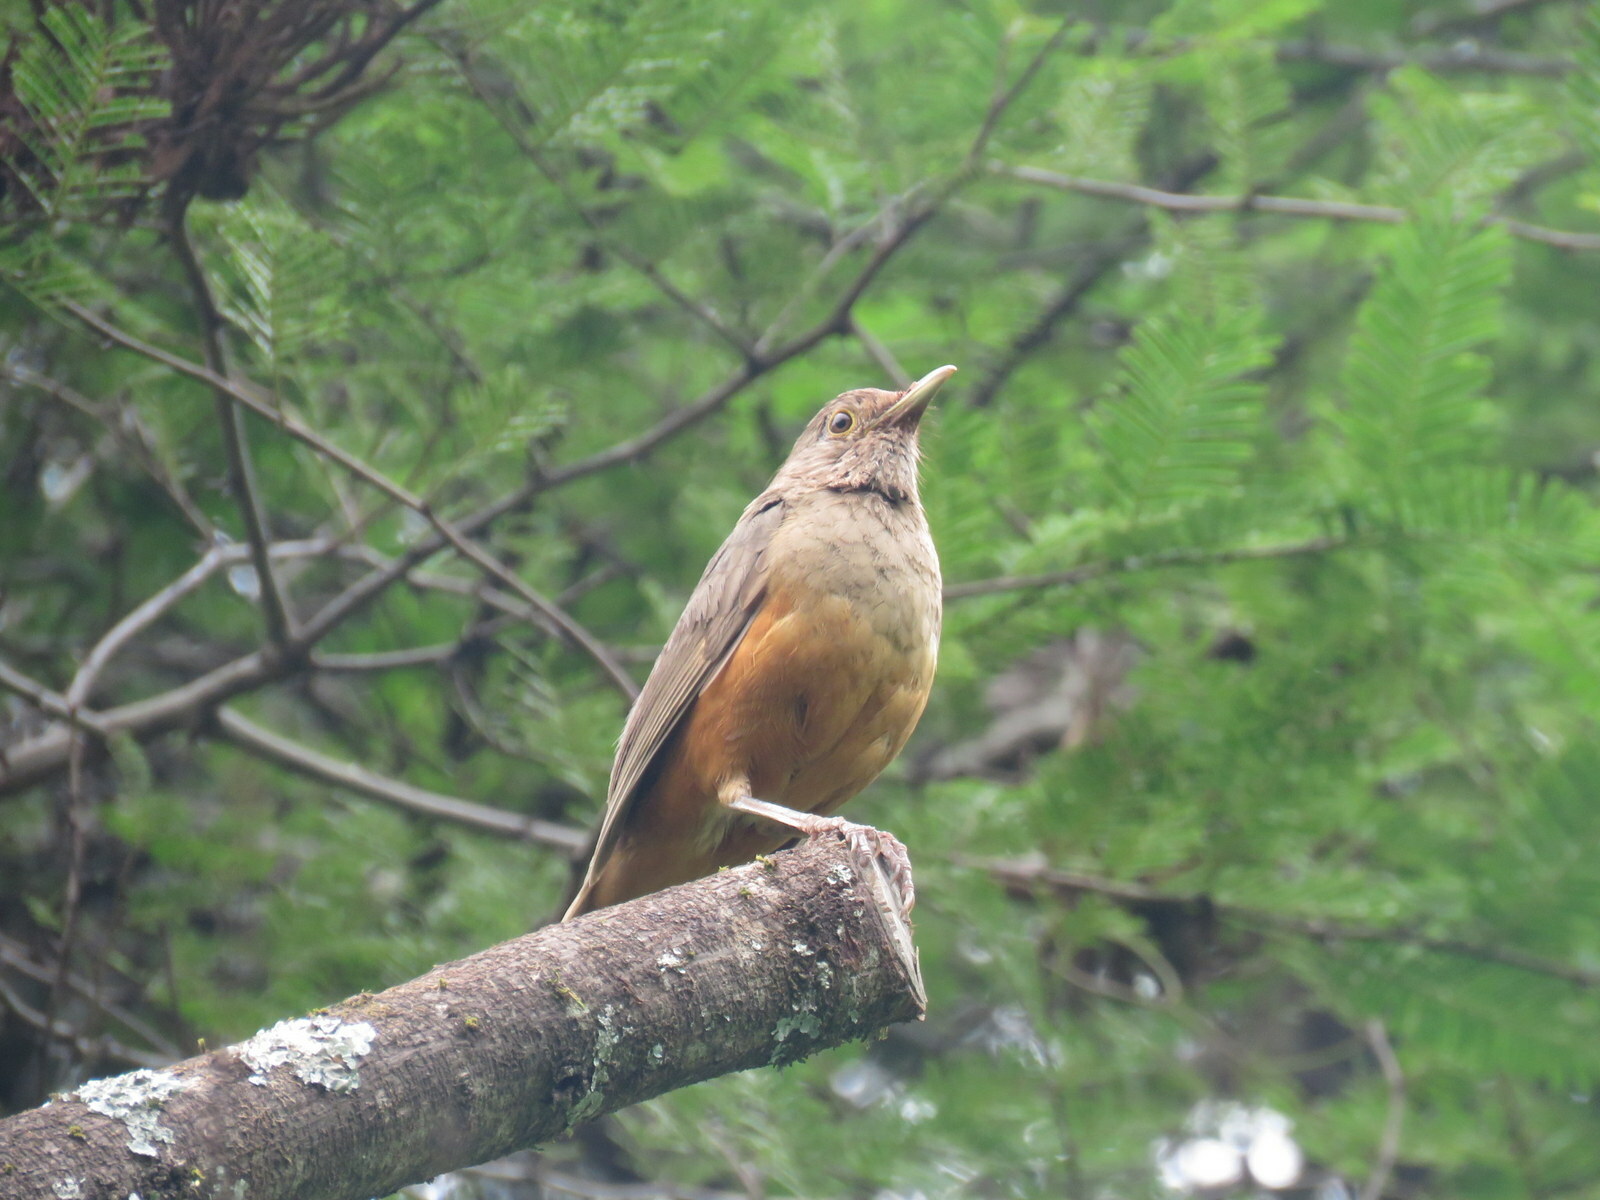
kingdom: Animalia
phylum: Chordata
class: Aves
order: Passeriformes
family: Turdidae
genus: Turdus
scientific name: Turdus rufiventris
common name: Rufous-bellied thrush
